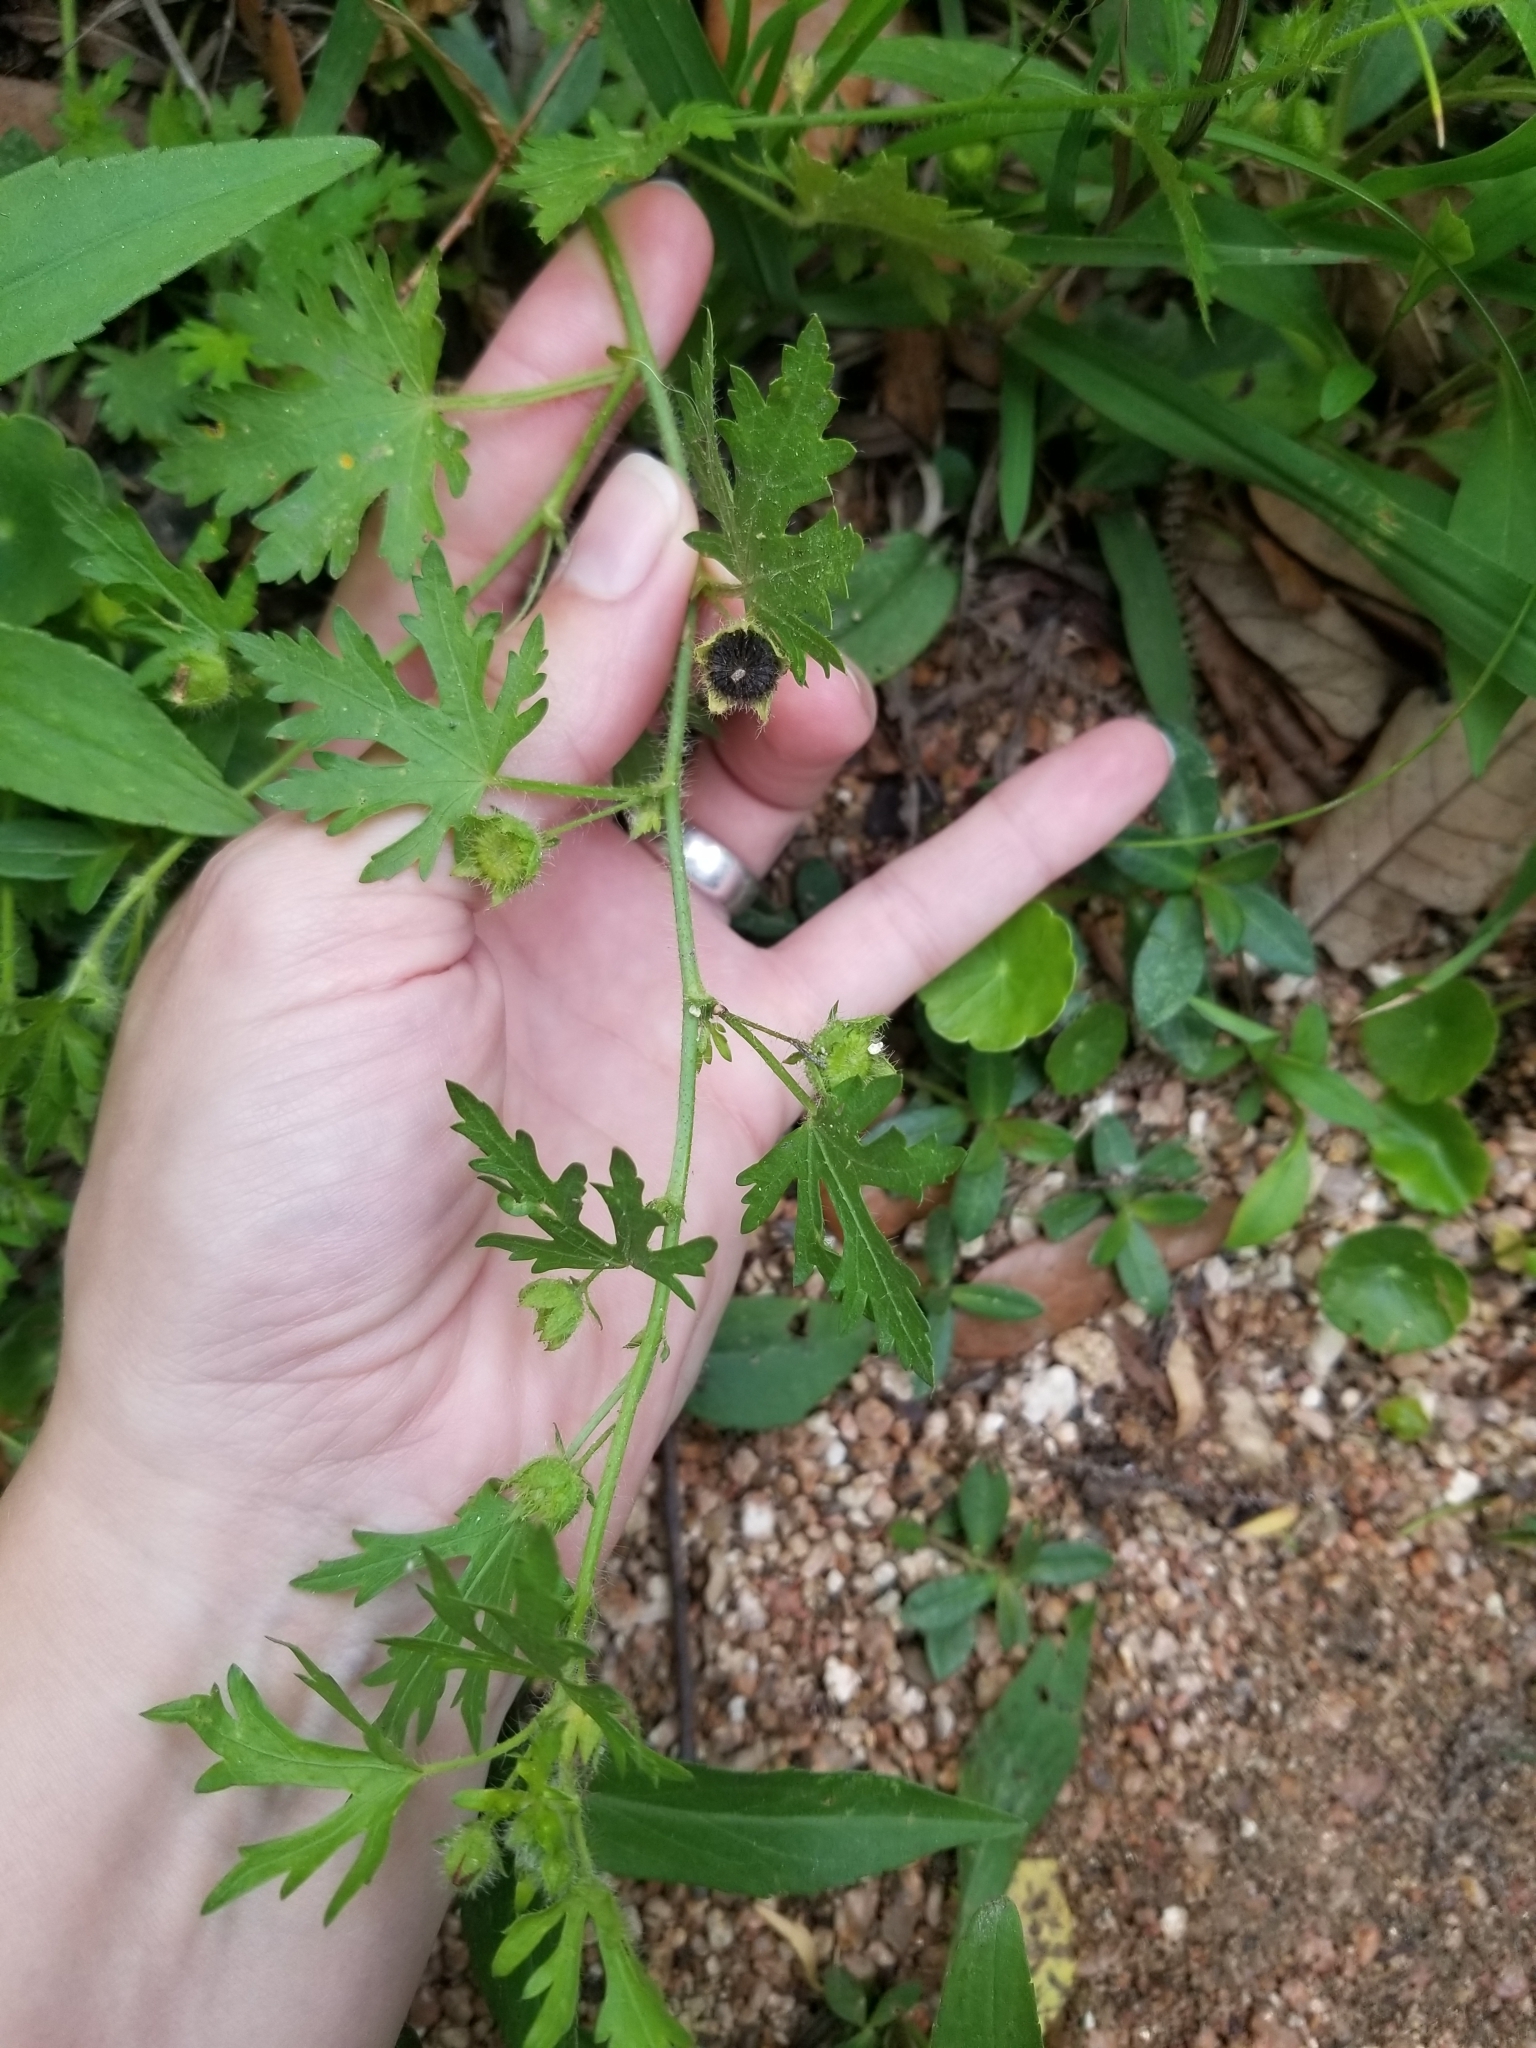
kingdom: Plantae
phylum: Tracheophyta
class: Magnoliopsida
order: Malvales
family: Malvaceae
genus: Modiola
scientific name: Modiola caroliniana
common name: Carolina bristlemallow
